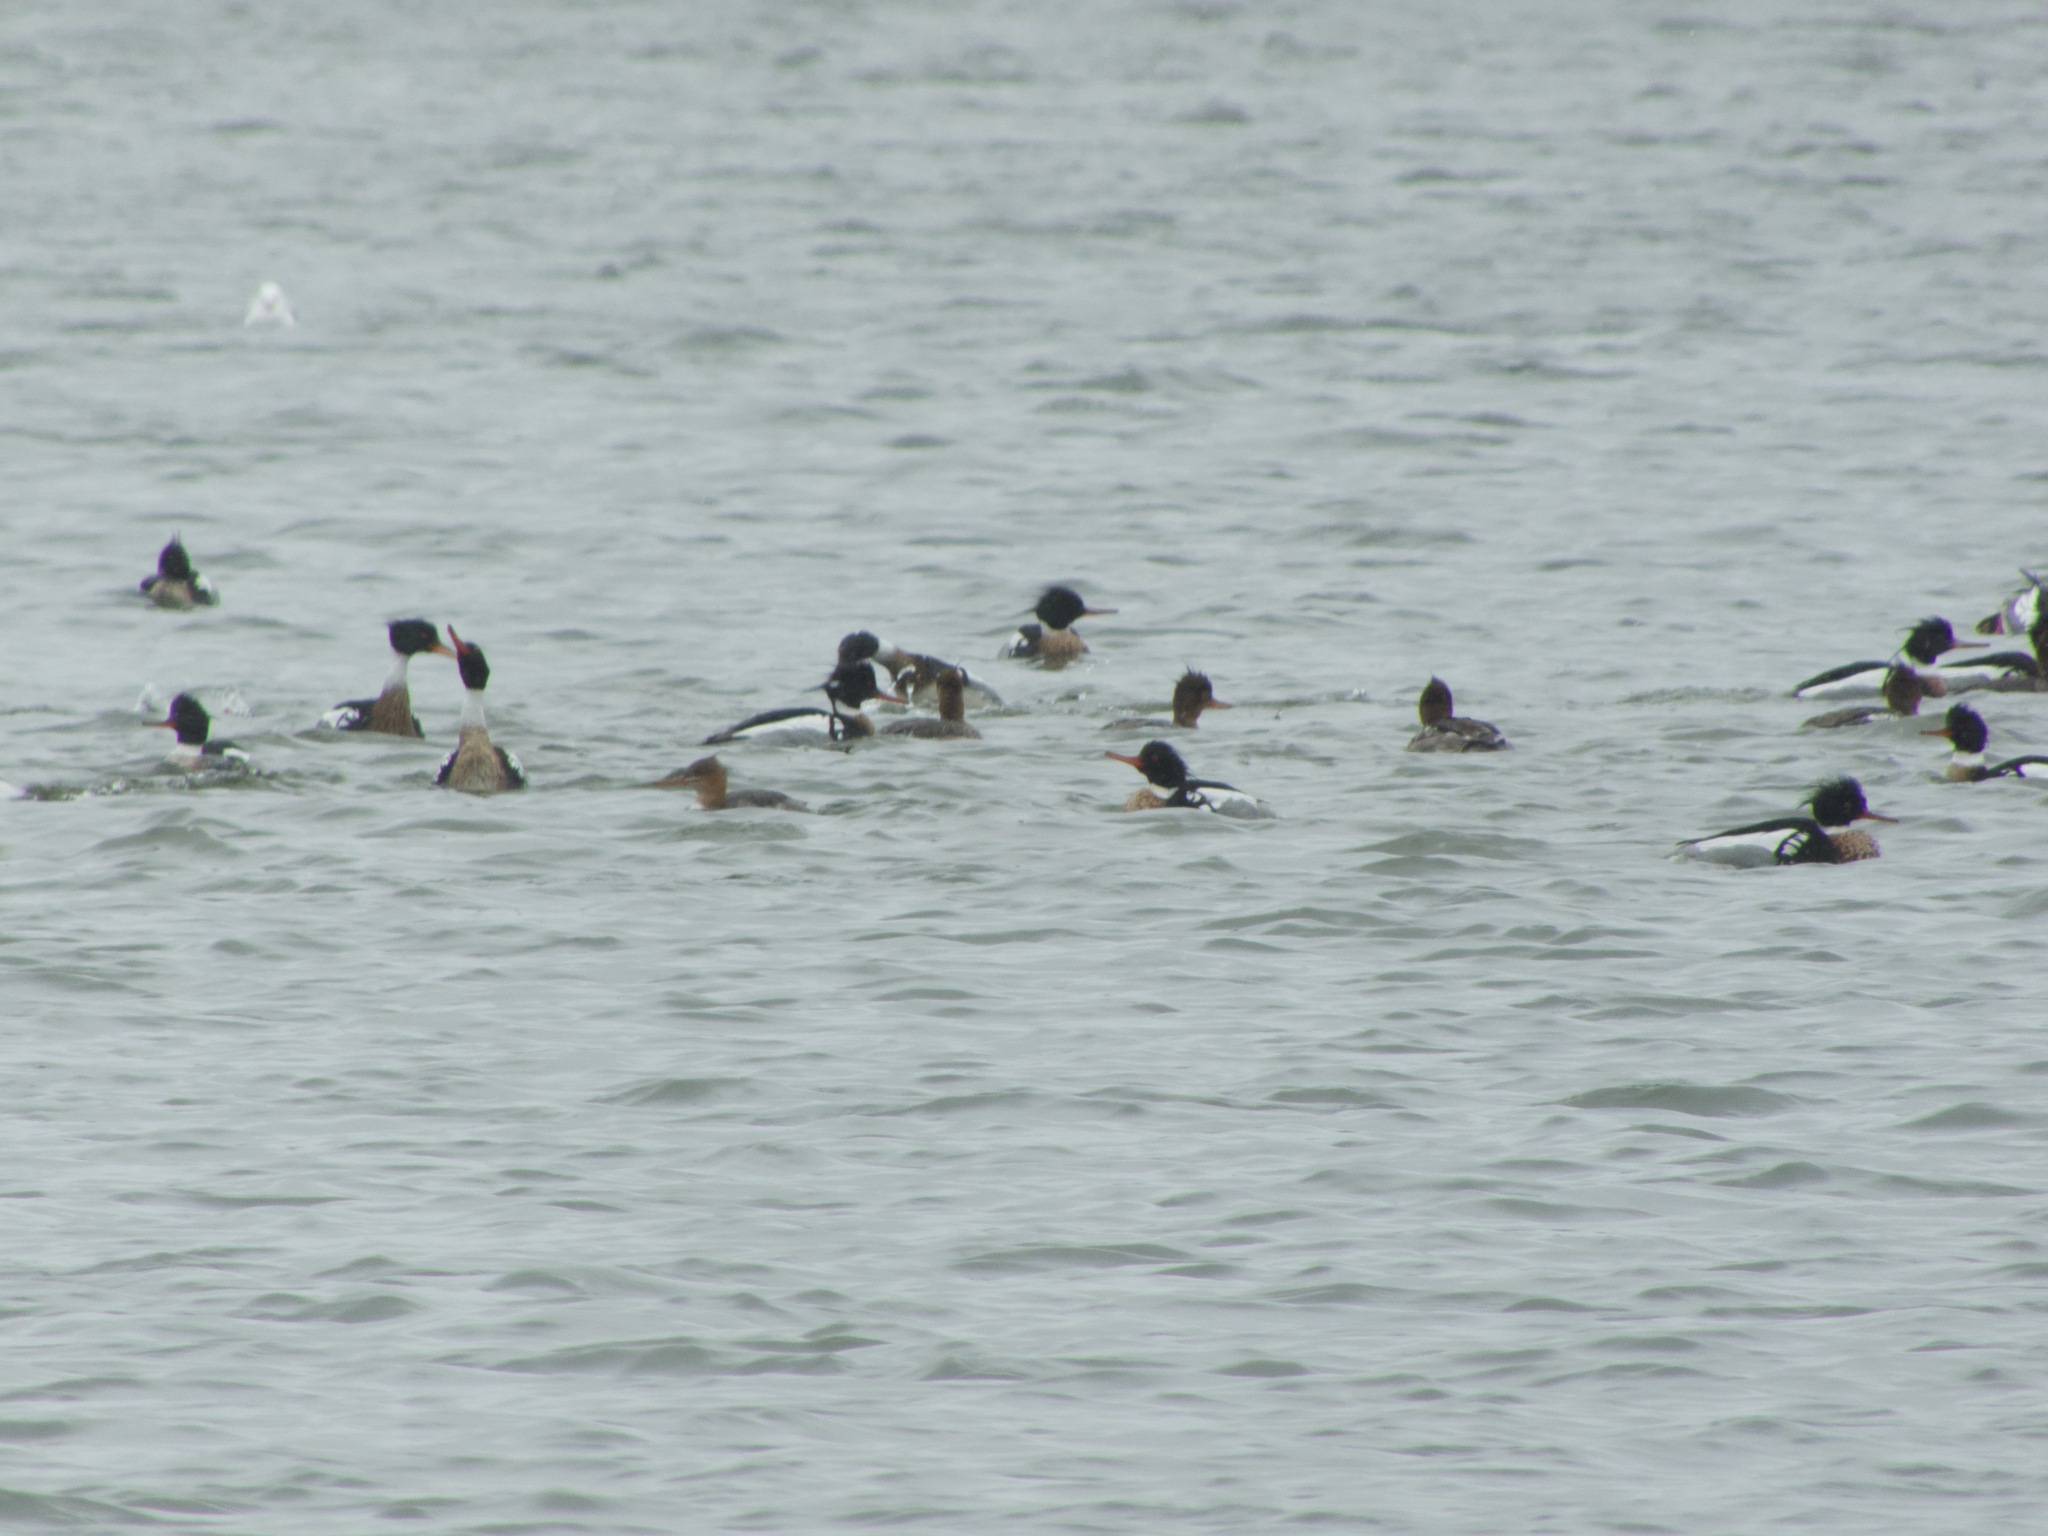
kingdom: Animalia
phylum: Chordata
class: Aves
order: Anseriformes
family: Anatidae
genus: Mergus
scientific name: Mergus serrator
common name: Red-breasted merganser
